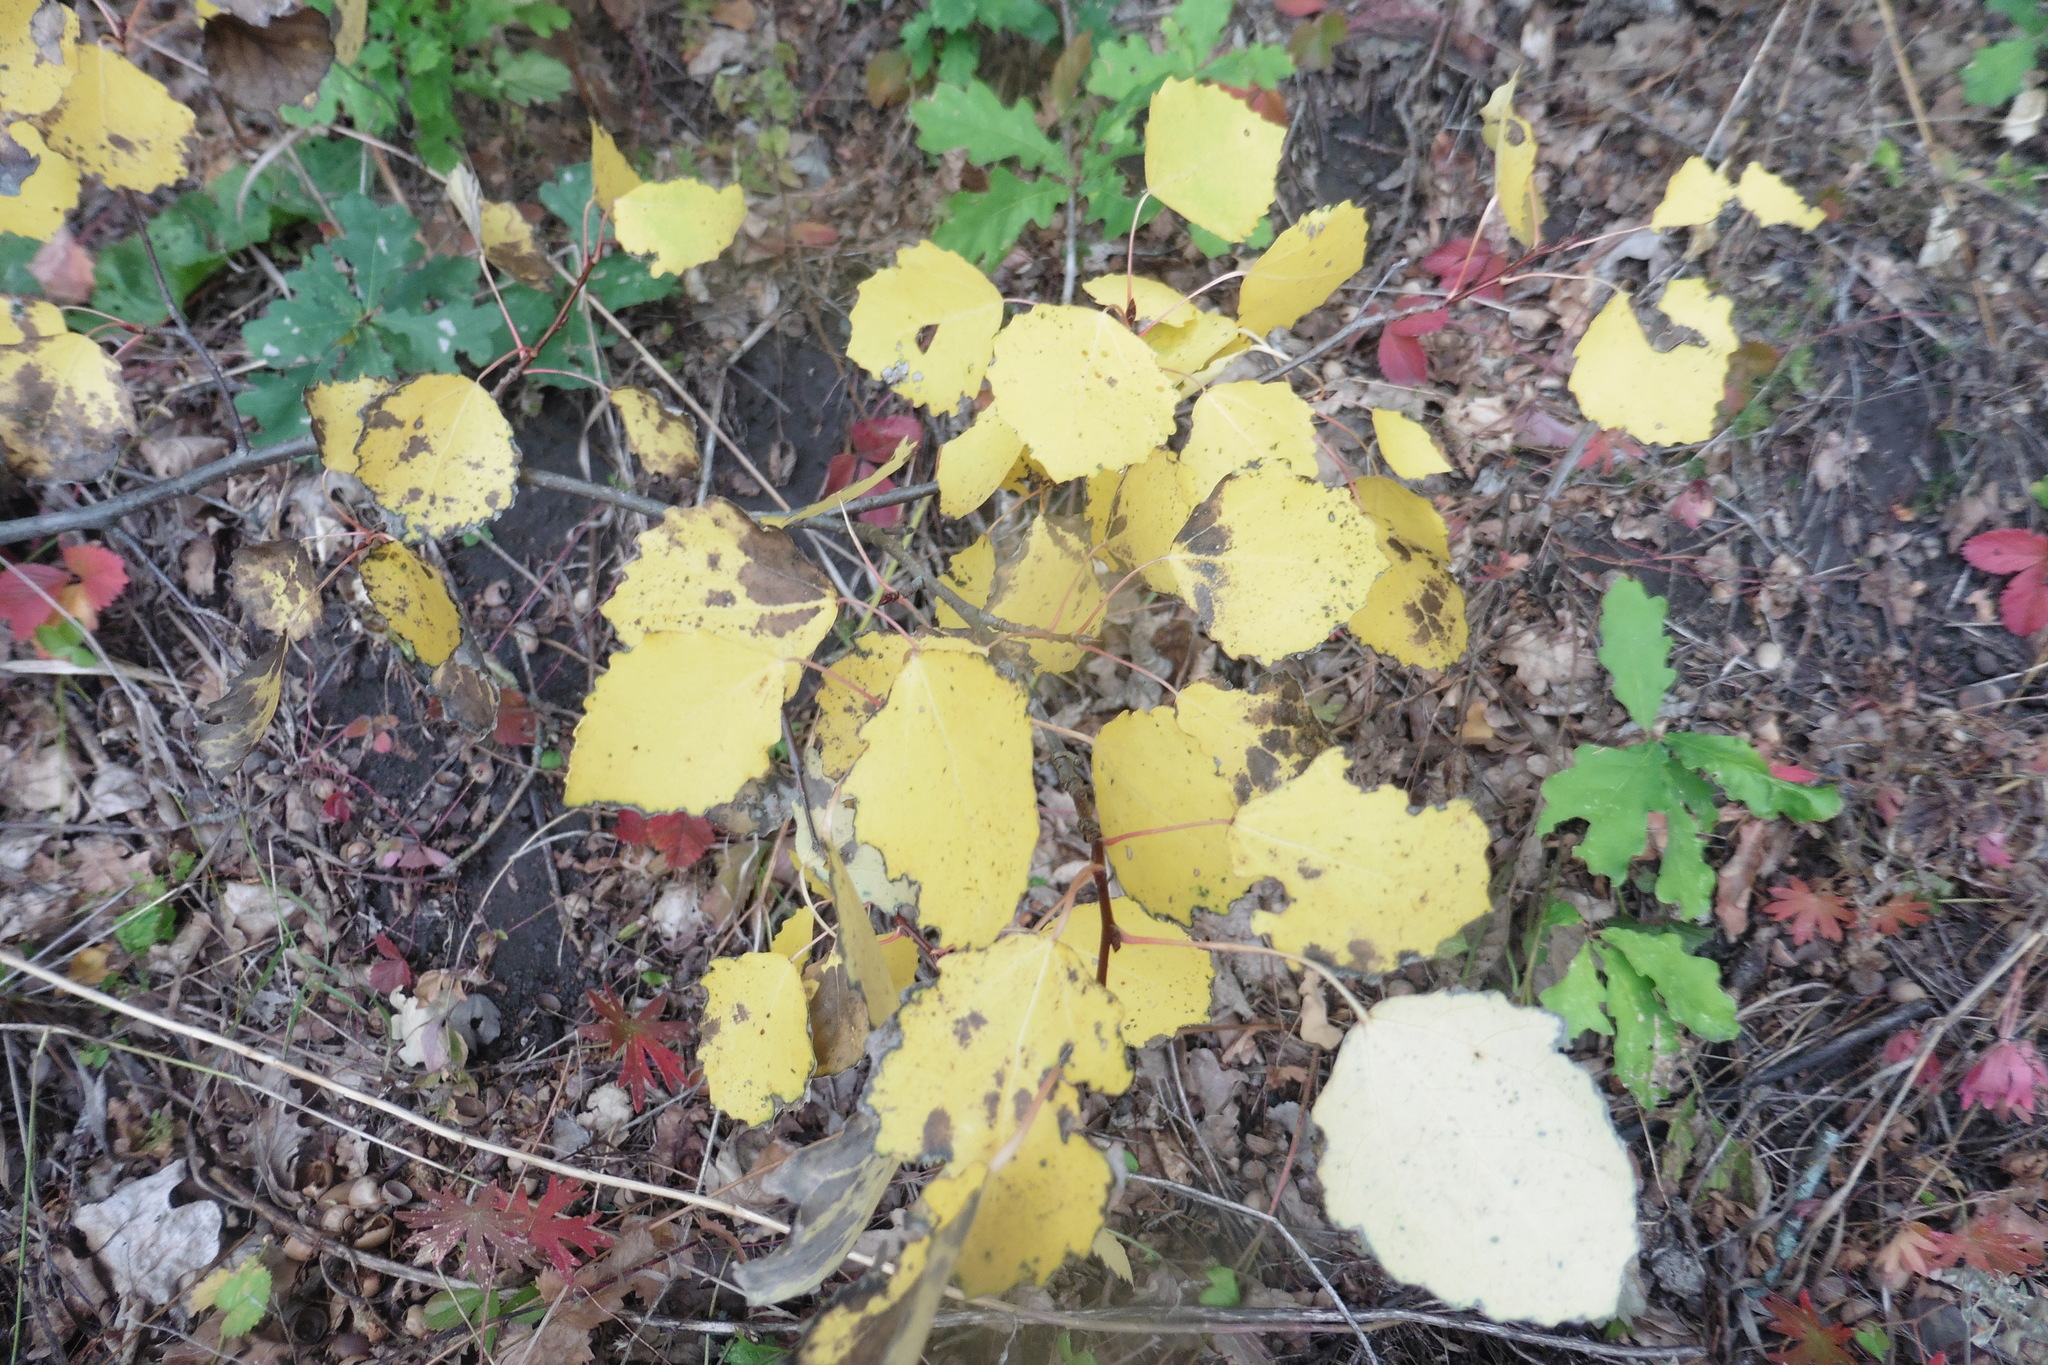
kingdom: Plantae
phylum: Tracheophyta
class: Magnoliopsida
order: Malpighiales
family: Salicaceae
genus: Populus
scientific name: Populus tremula
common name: European aspen
